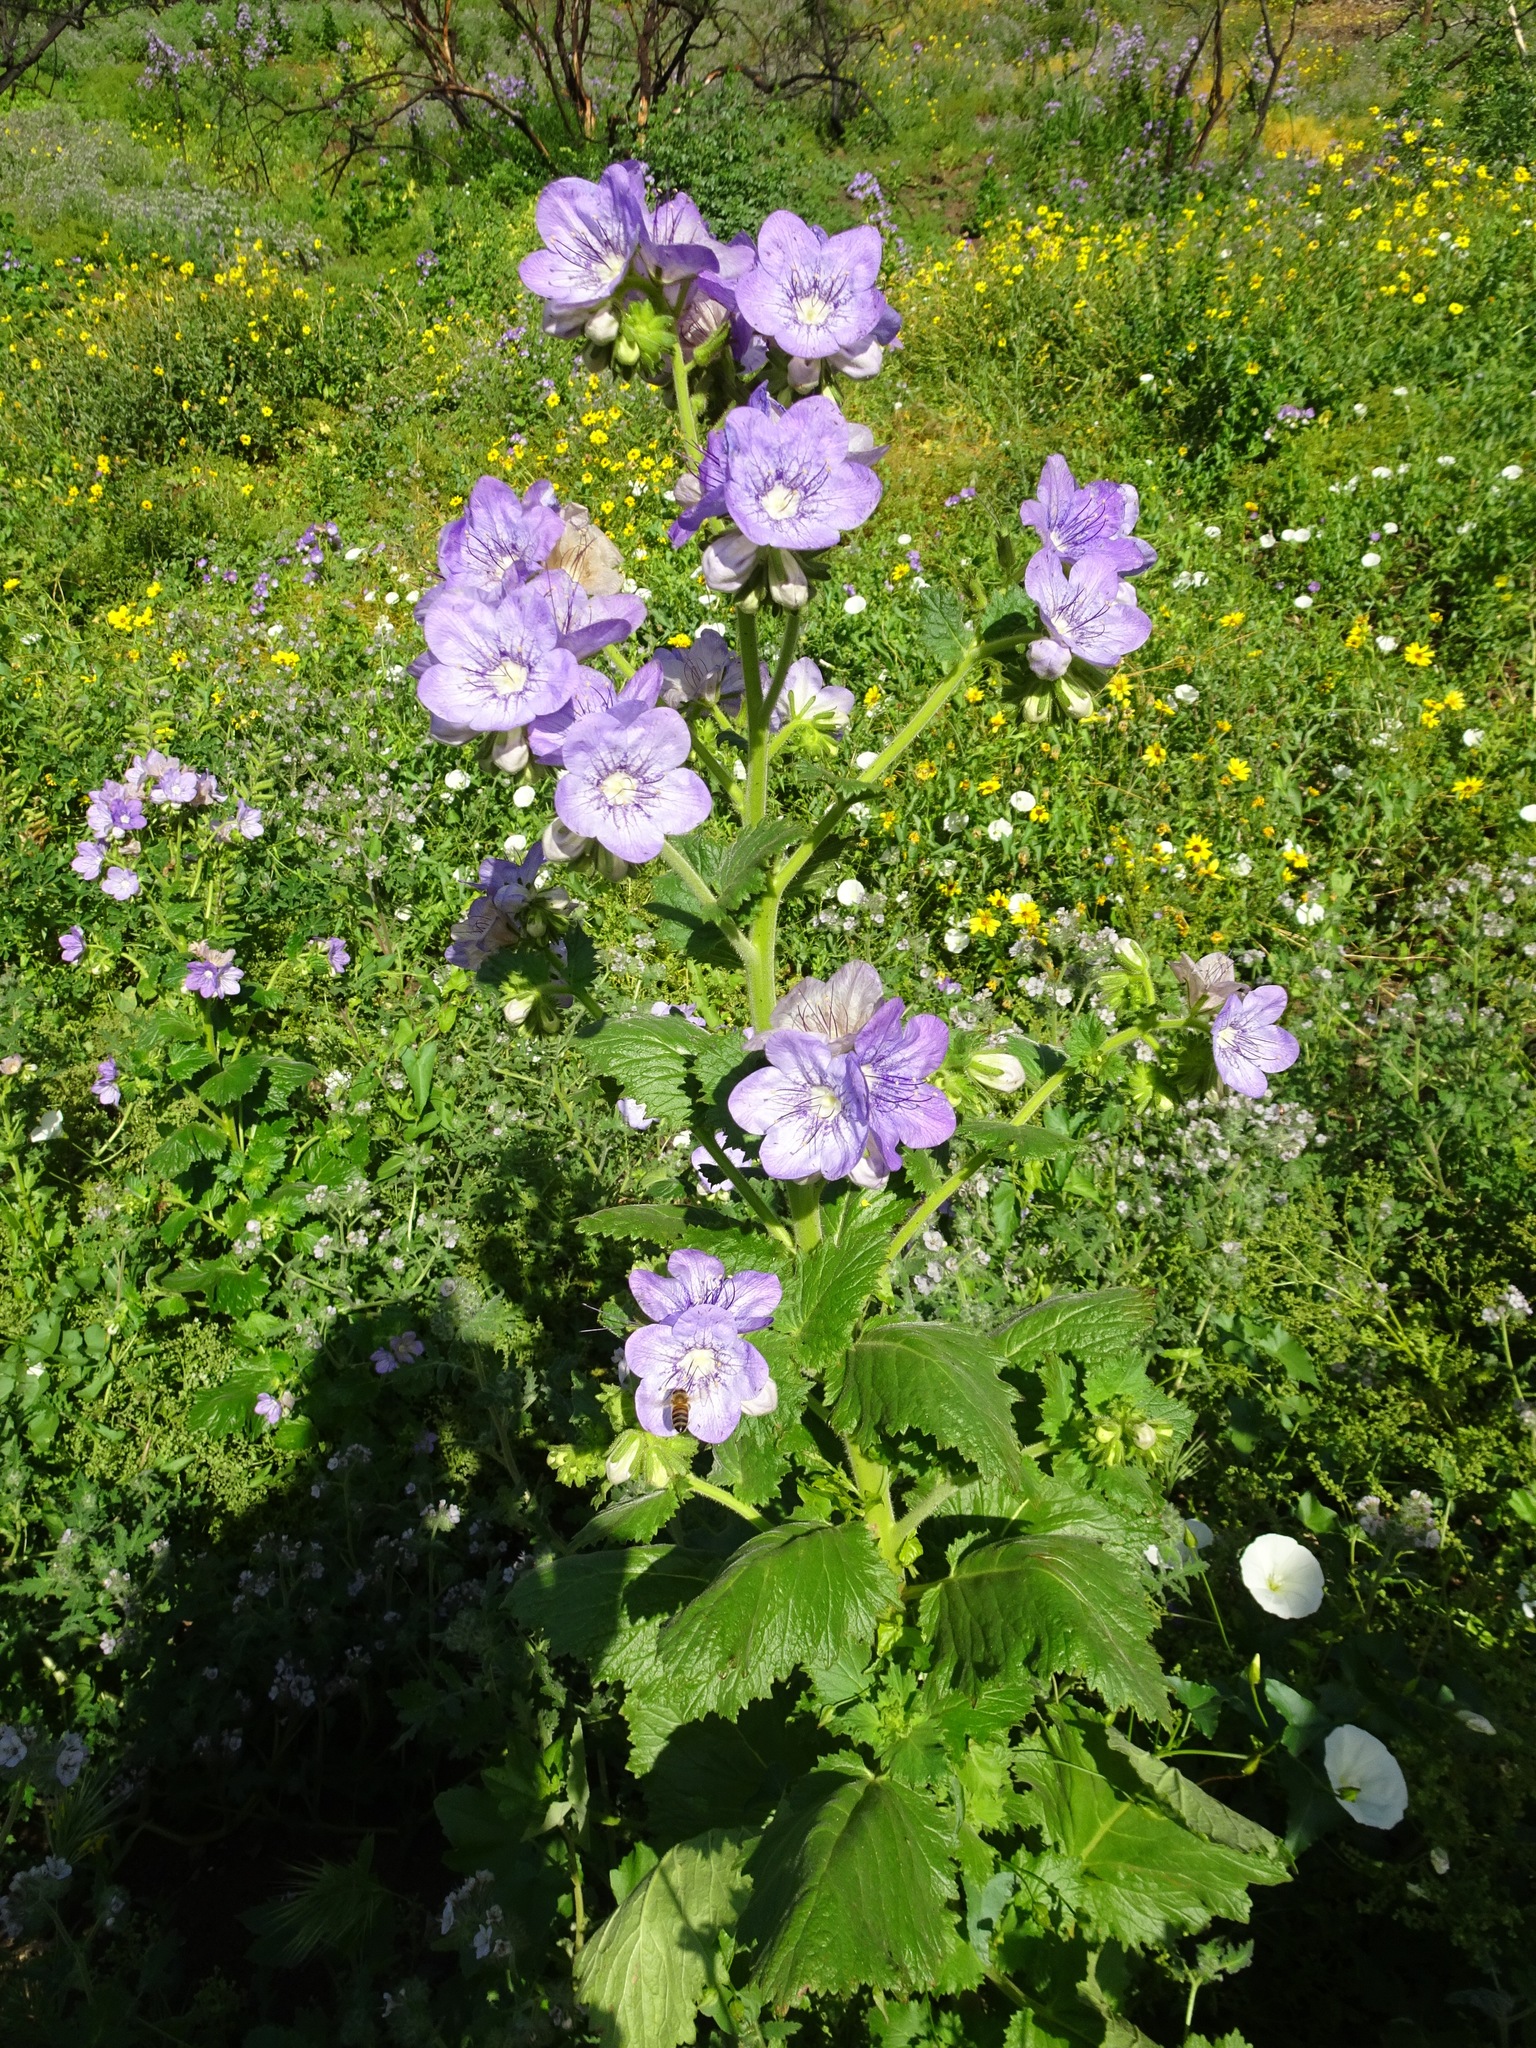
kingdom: Plantae
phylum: Tracheophyta
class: Magnoliopsida
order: Boraginales
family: Hydrophyllaceae
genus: Phacelia
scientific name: Phacelia grandiflora
